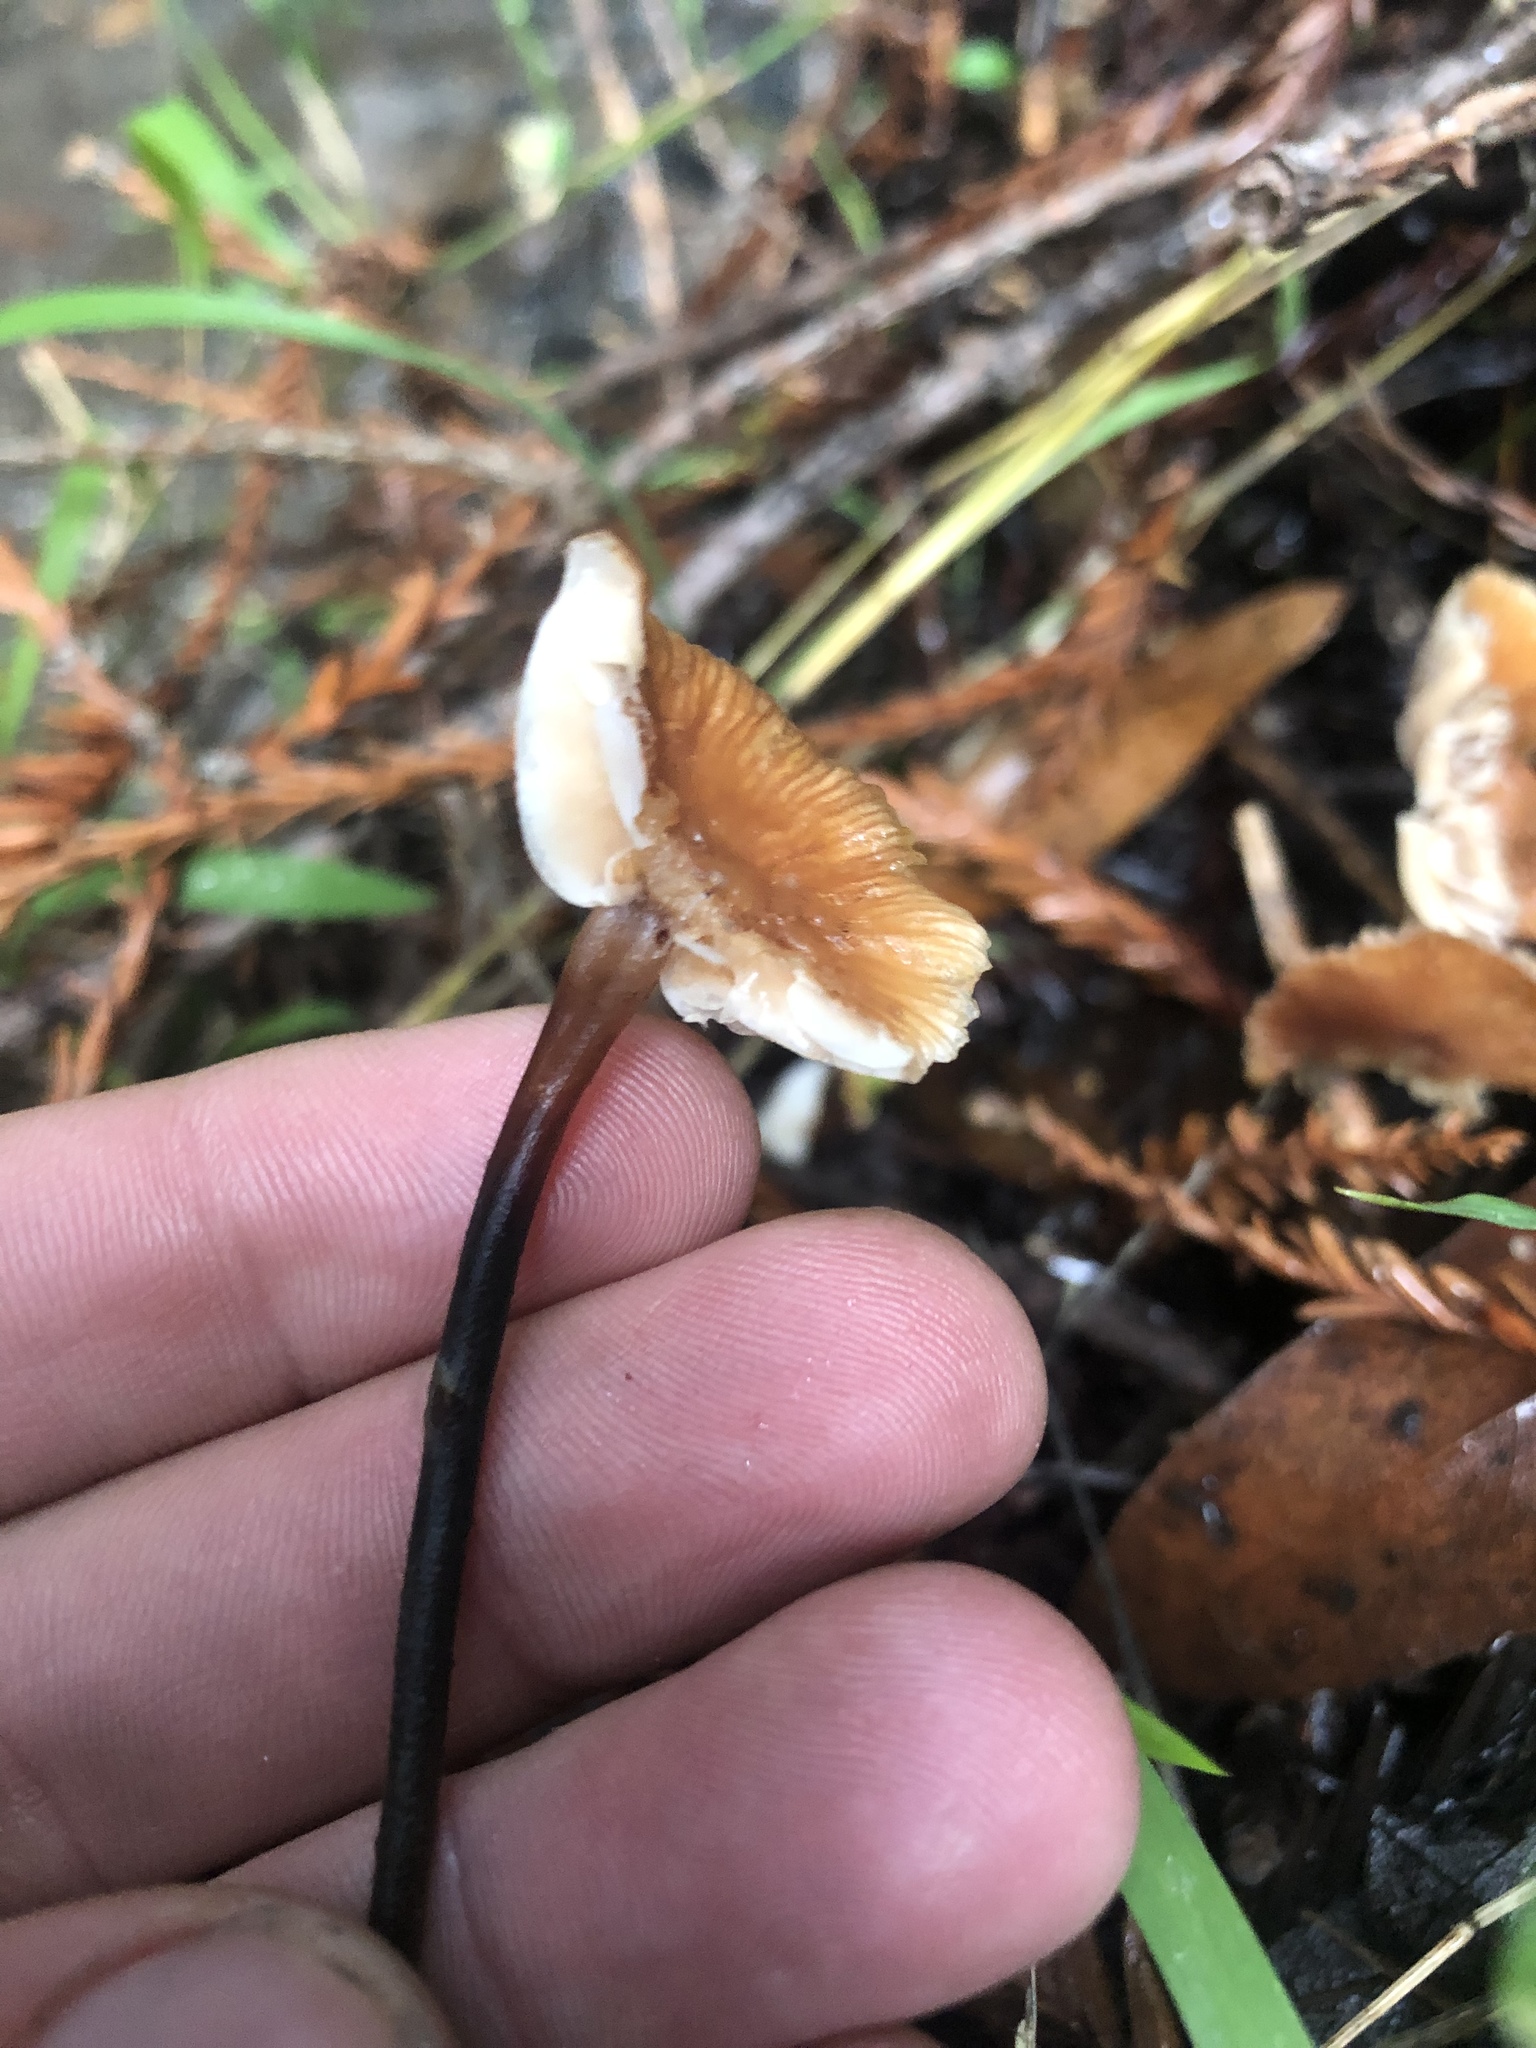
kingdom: Fungi
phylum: Basidiomycota
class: Agaricomycetes
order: Agaricales
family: Omphalotaceae
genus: Gymnopus
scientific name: Gymnopus brassicolens
